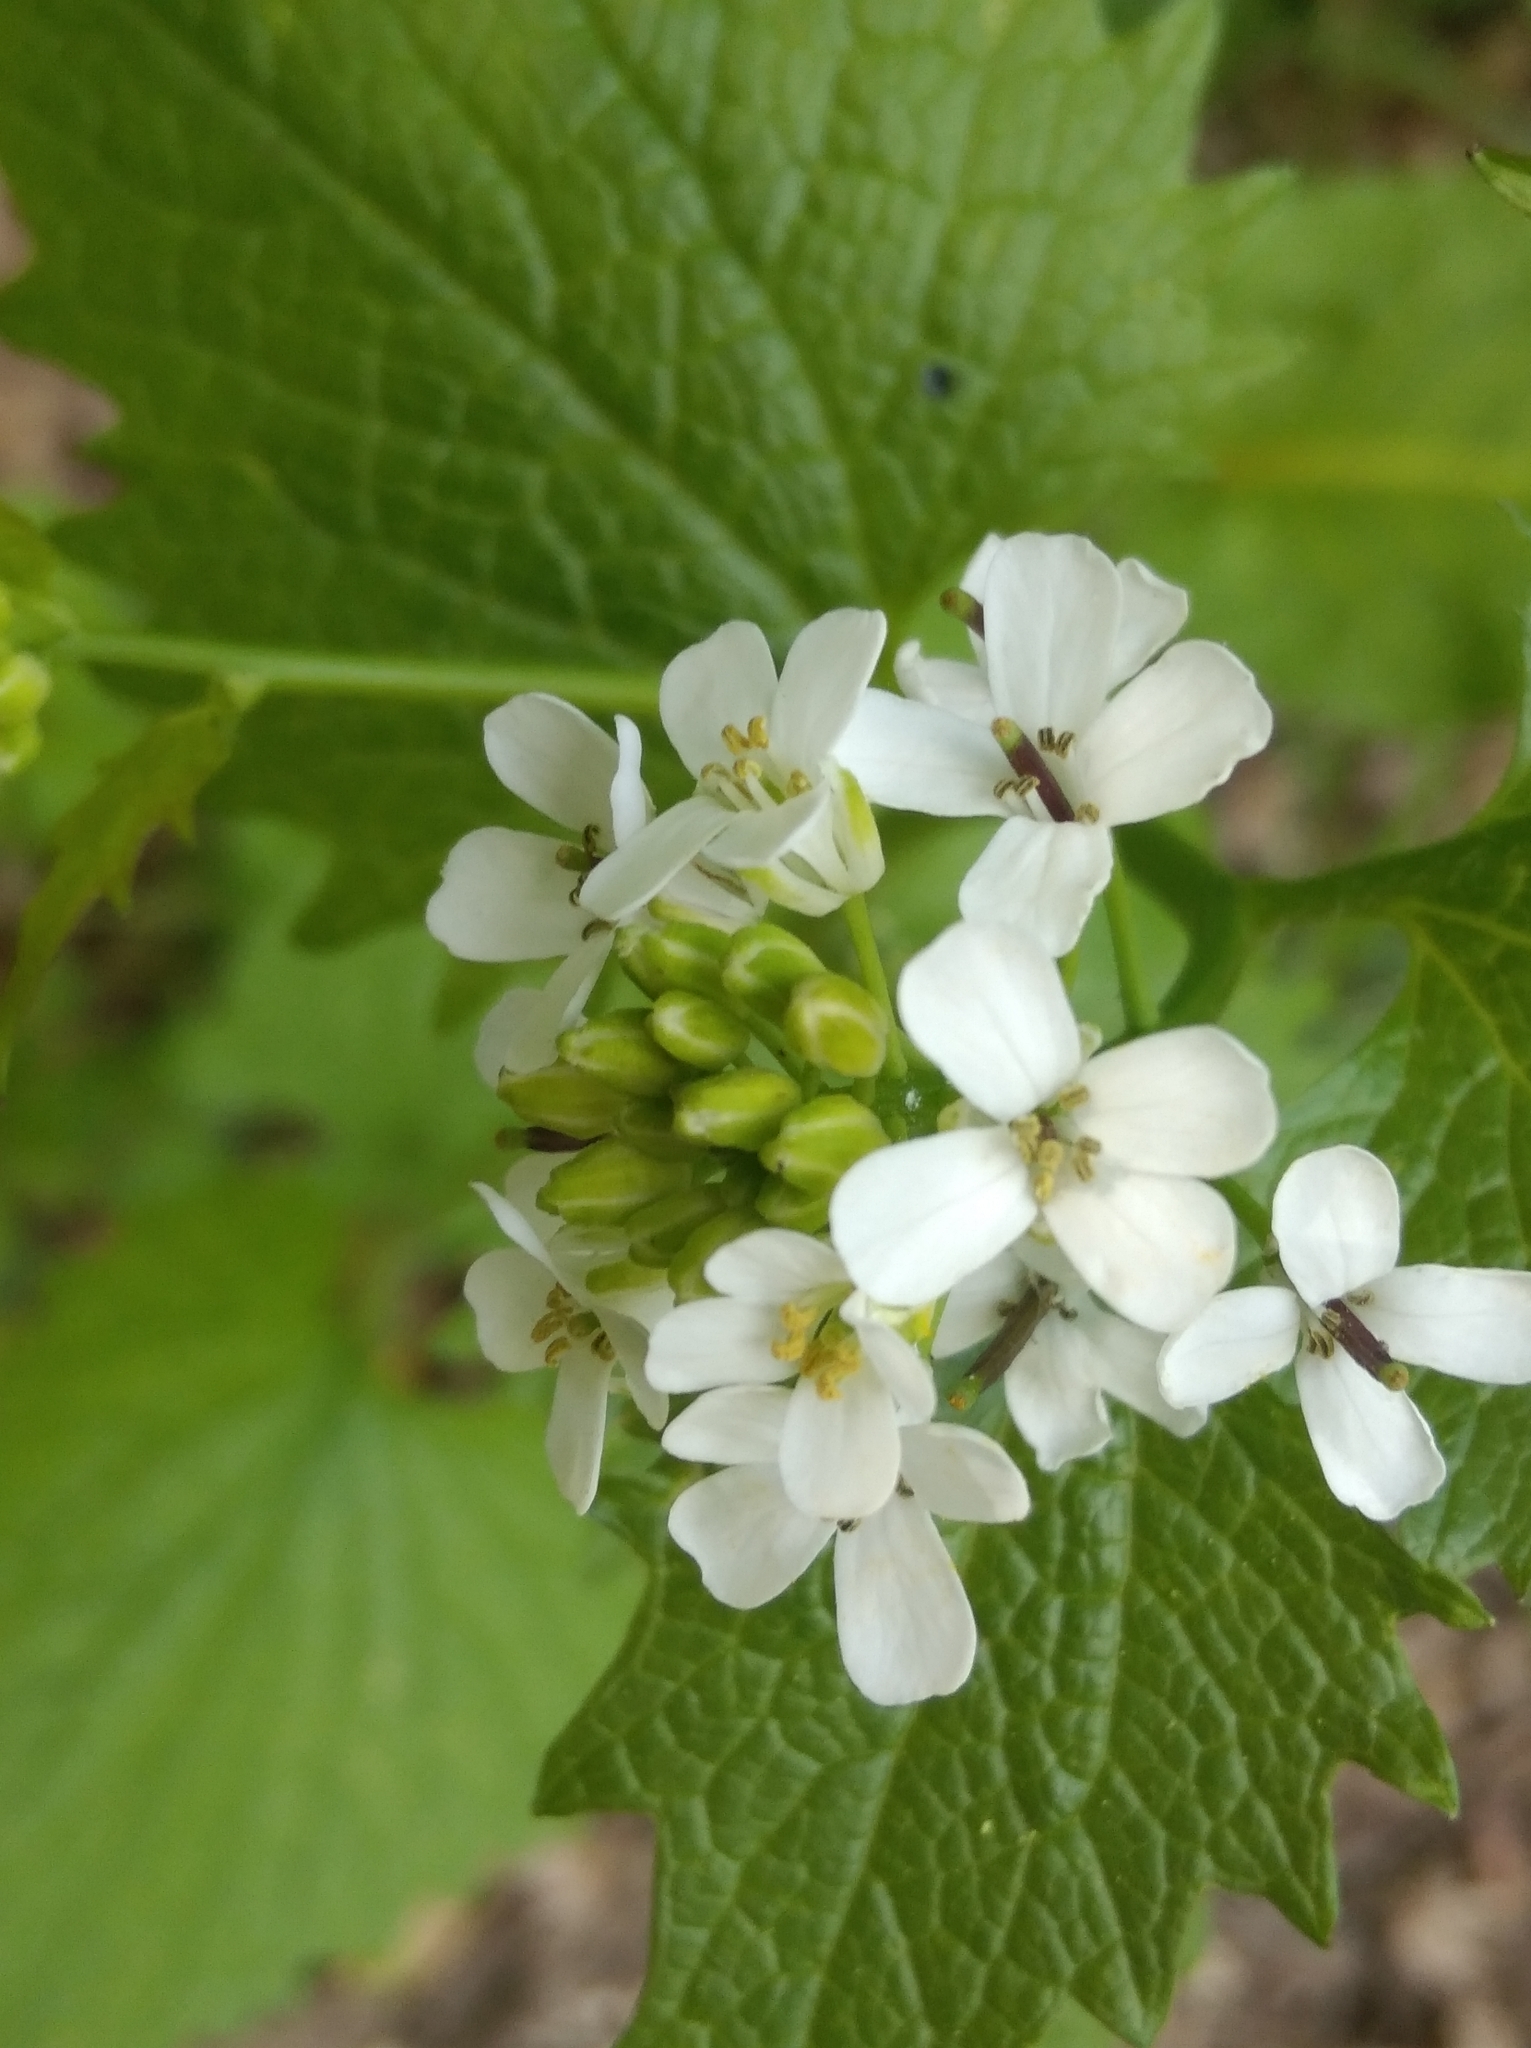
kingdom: Plantae
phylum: Tracheophyta
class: Magnoliopsida
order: Brassicales
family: Brassicaceae
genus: Alliaria
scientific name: Alliaria petiolata
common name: Garlic mustard
